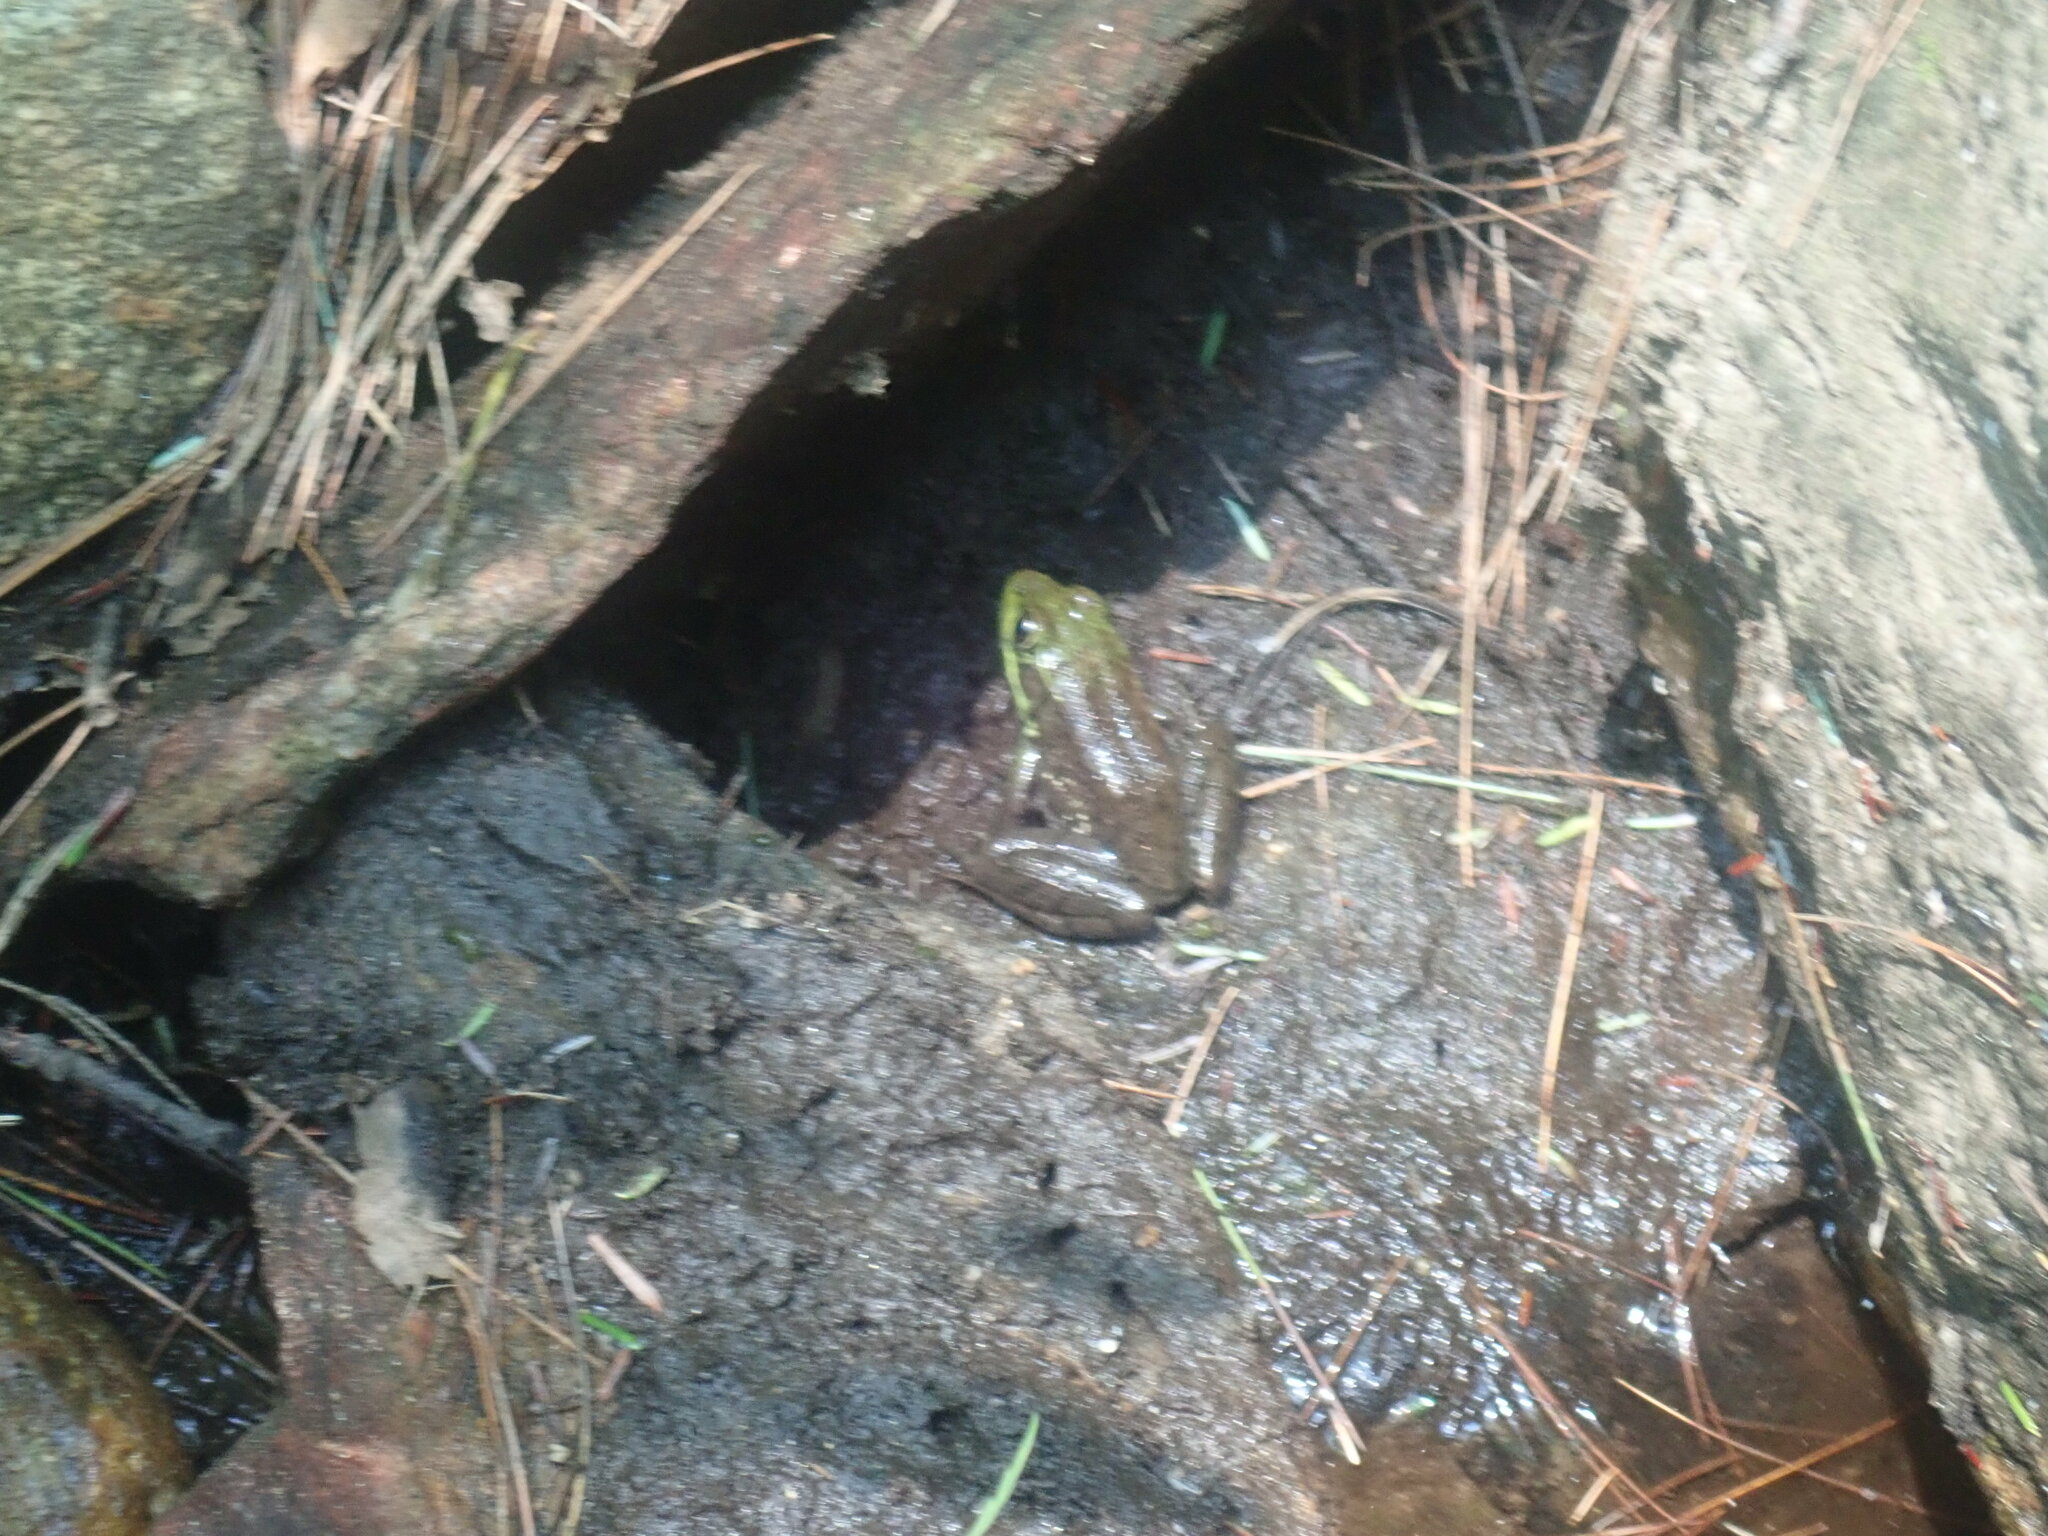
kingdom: Animalia
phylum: Chordata
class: Amphibia
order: Anura
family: Ranidae
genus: Lithobates
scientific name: Lithobates catesbeianus
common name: American bullfrog
